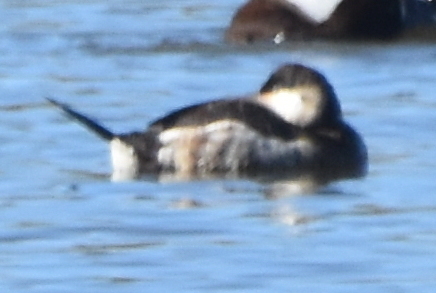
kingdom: Animalia
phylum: Chordata
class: Aves
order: Anseriformes
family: Anatidae
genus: Oxyura
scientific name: Oxyura jamaicensis
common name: Ruddy duck
